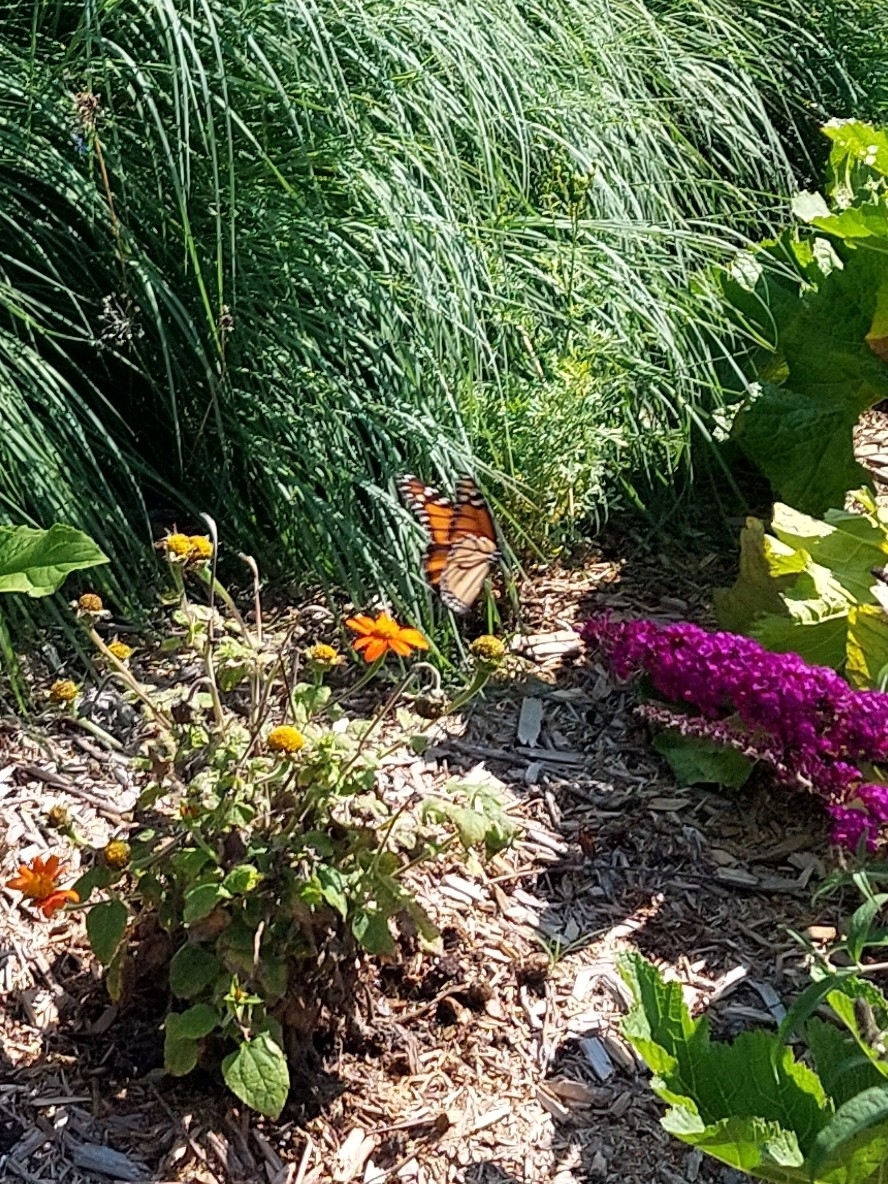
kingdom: Animalia
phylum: Arthropoda
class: Insecta
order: Lepidoptera
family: Nymphalidae
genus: Danaus
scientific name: Danaus plexippus
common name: Monarch
